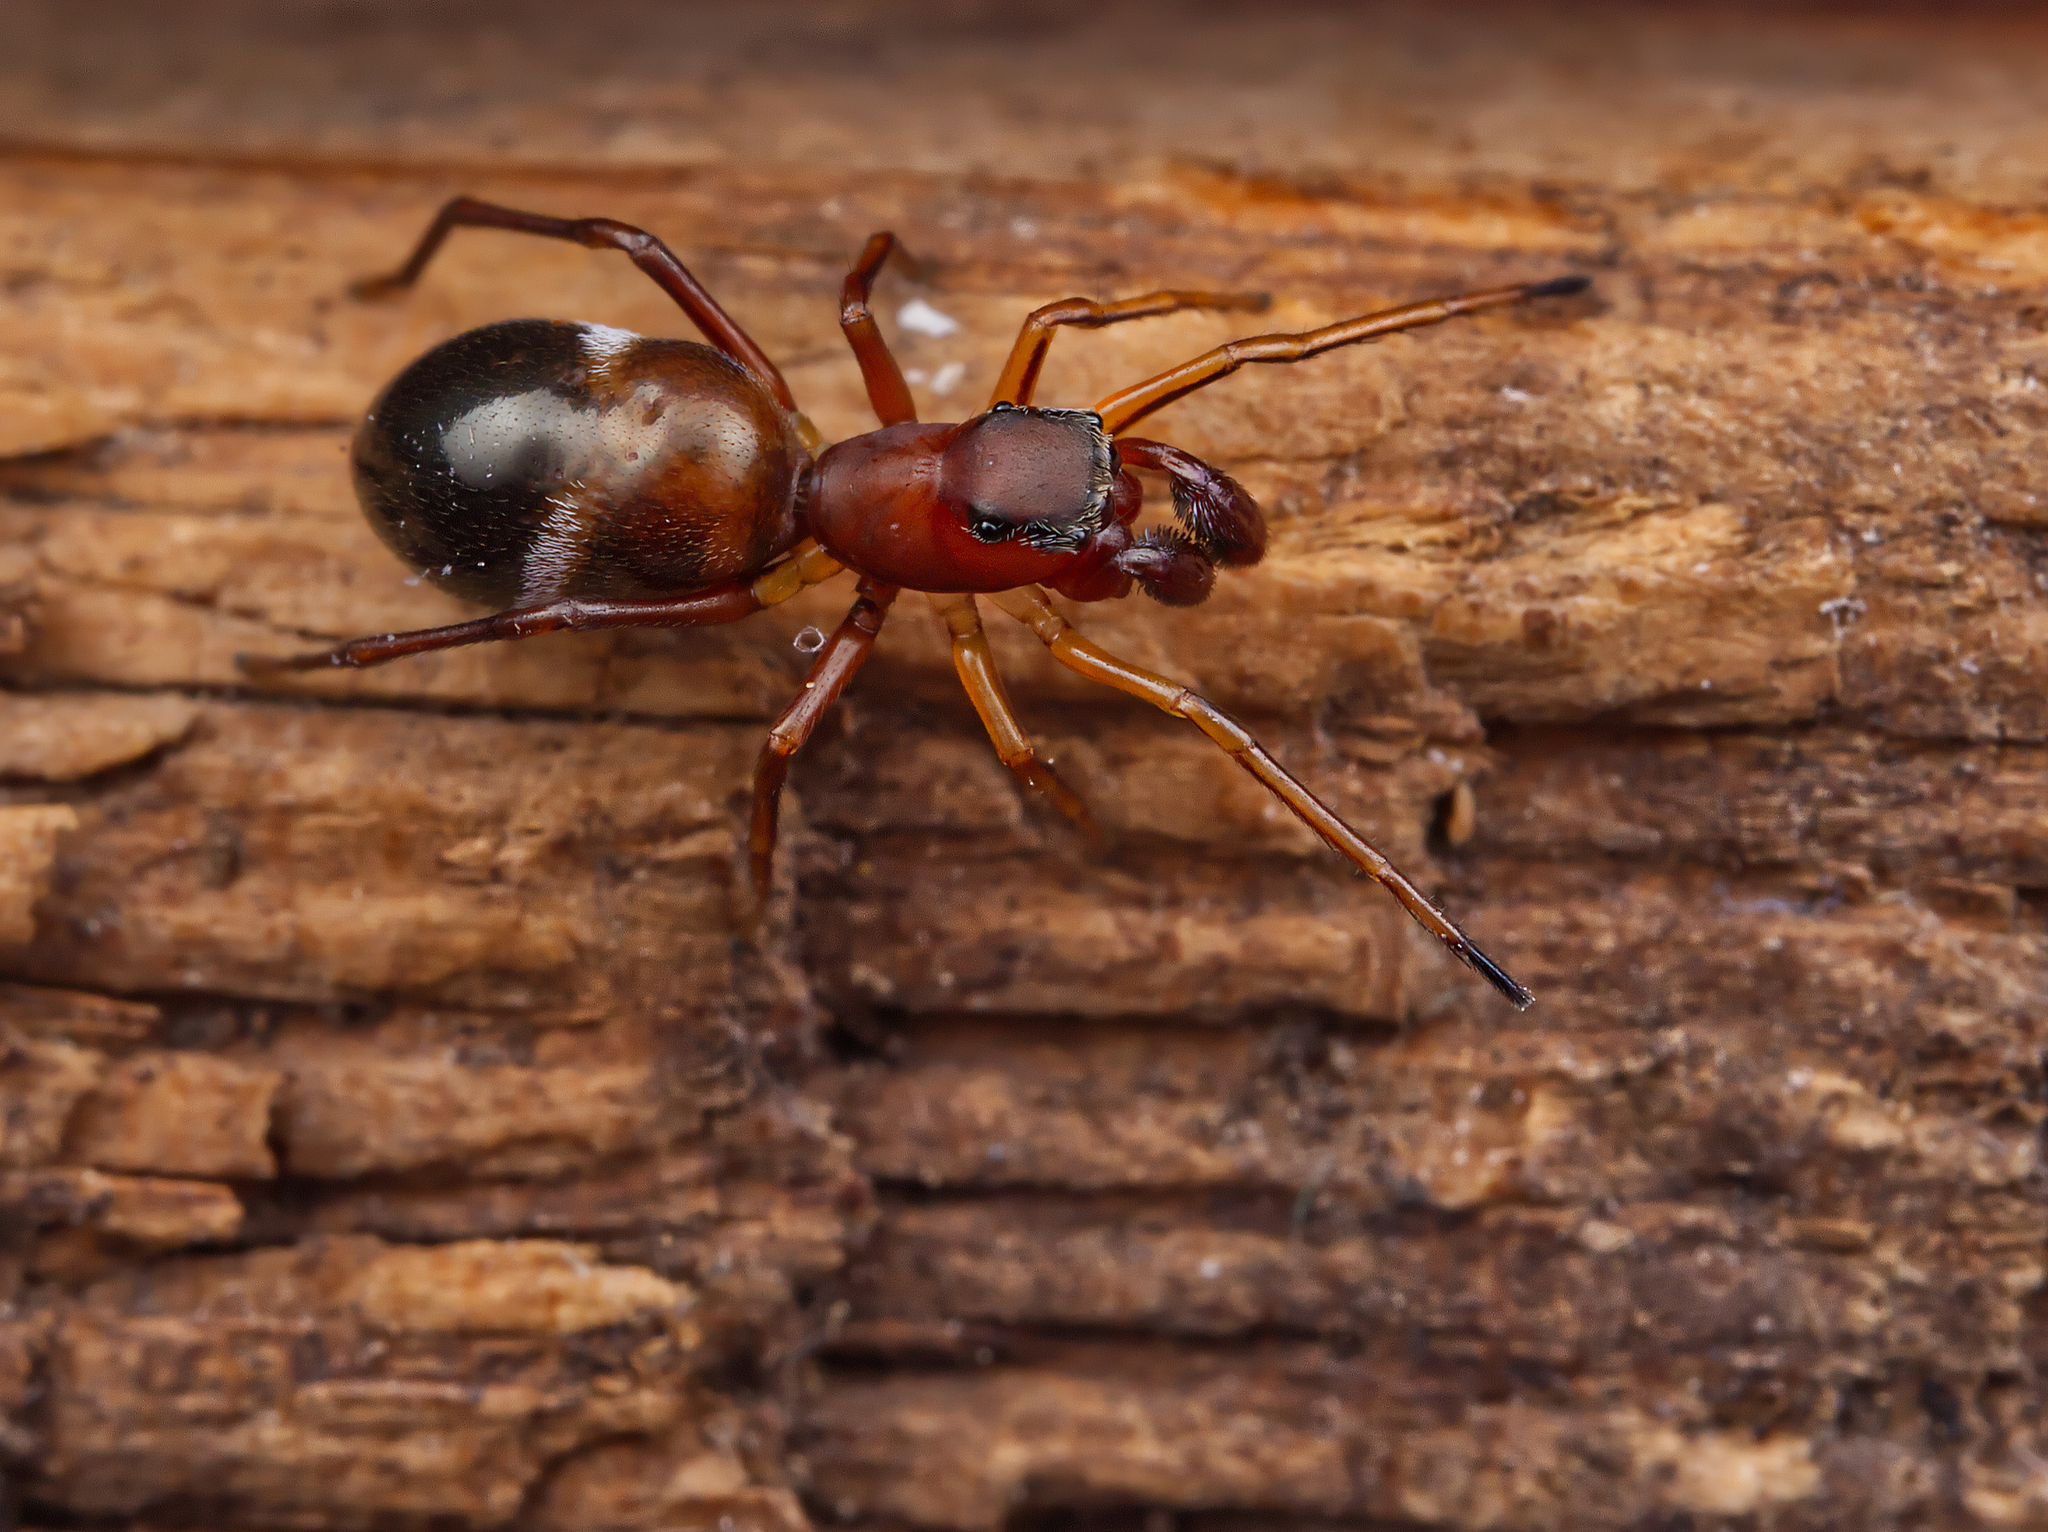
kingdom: Animalia
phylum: Arthropoda
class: Arachnida
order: Araneae
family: Salticidae
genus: Sarinda
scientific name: Sarinda hentzi
